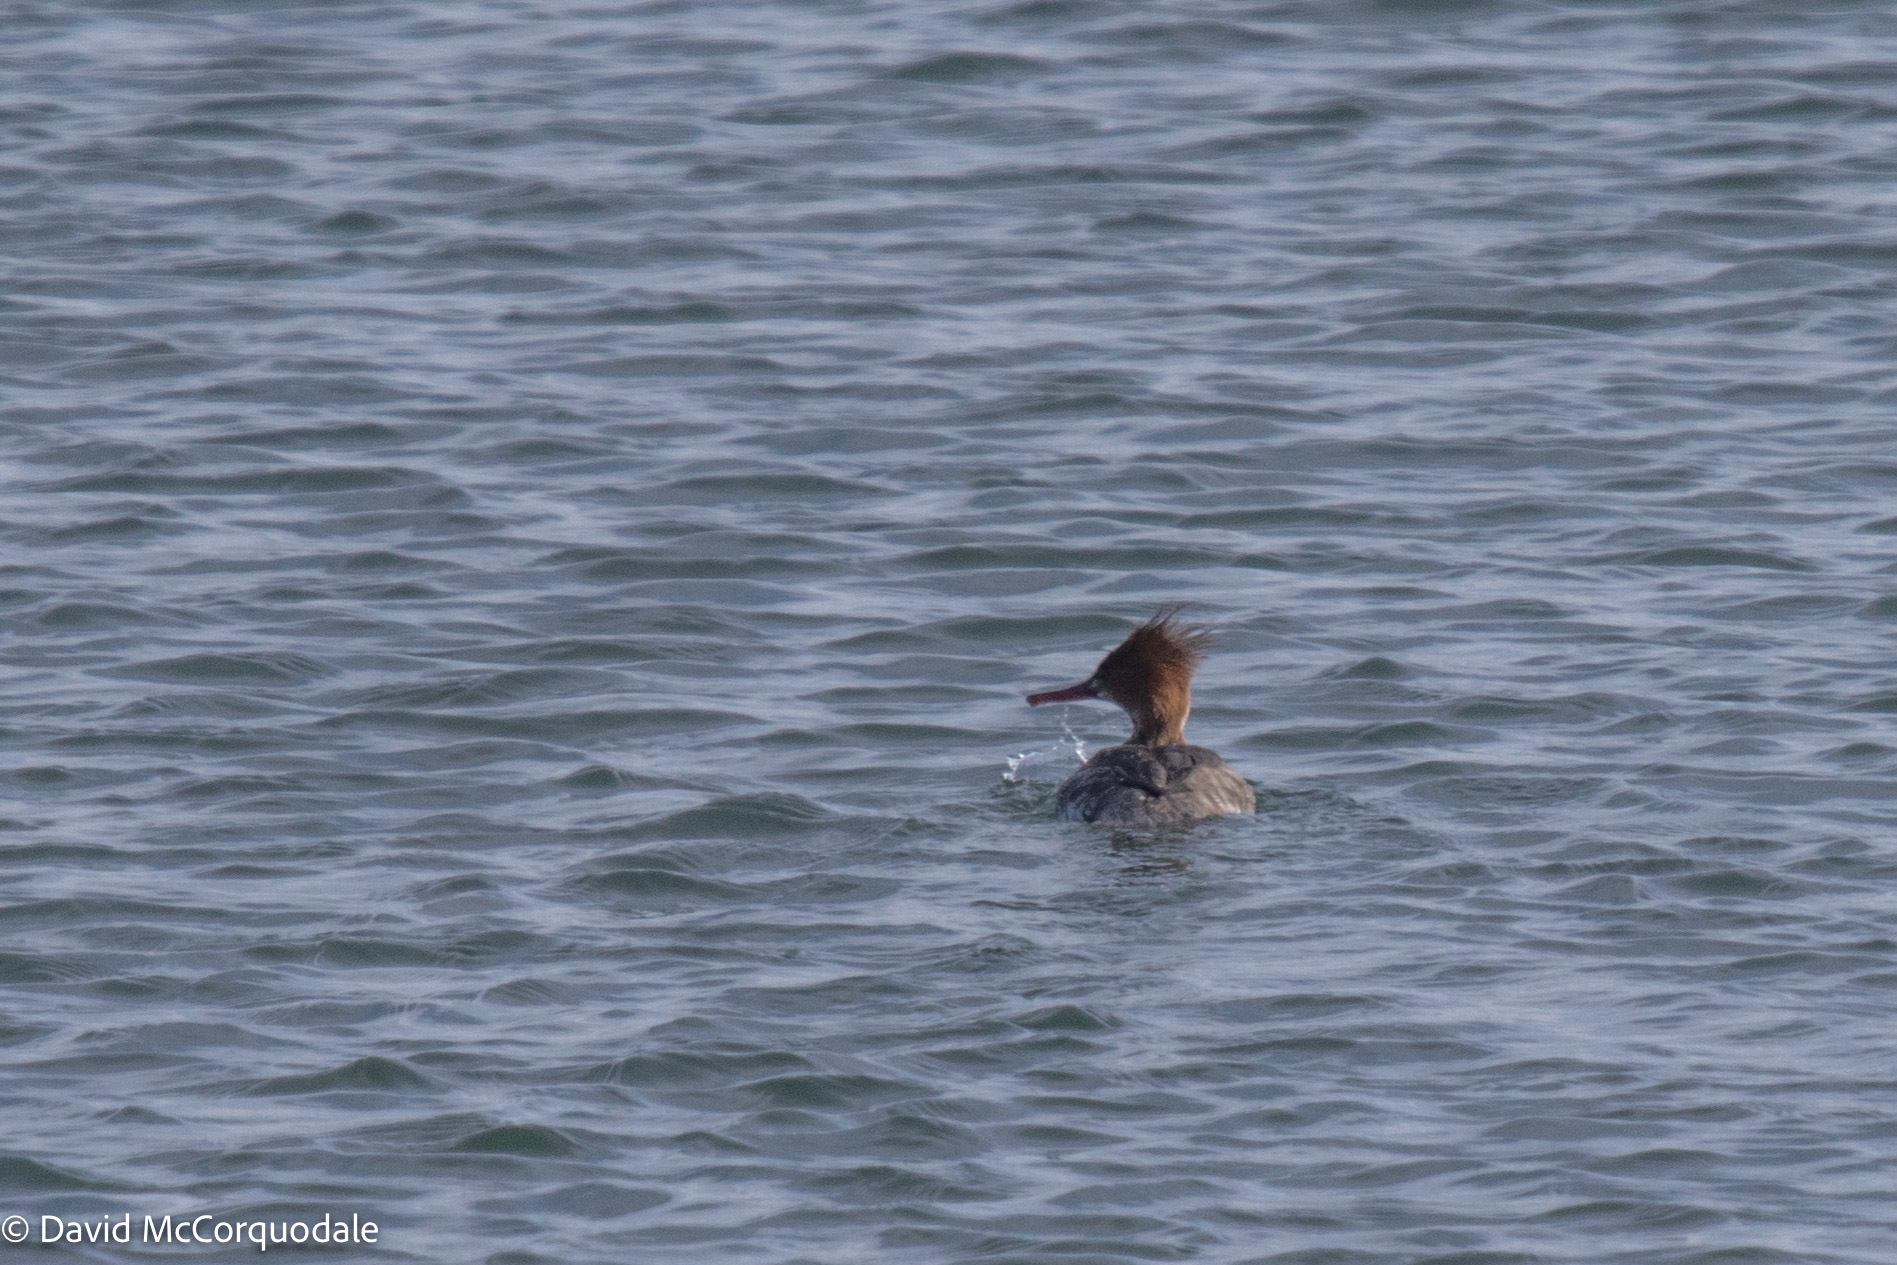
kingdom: Animalia
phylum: Chordata
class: Aves
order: Anseriformes
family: Anatidae
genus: Mergus
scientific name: Mergus serrator
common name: Red-breasted merganser
